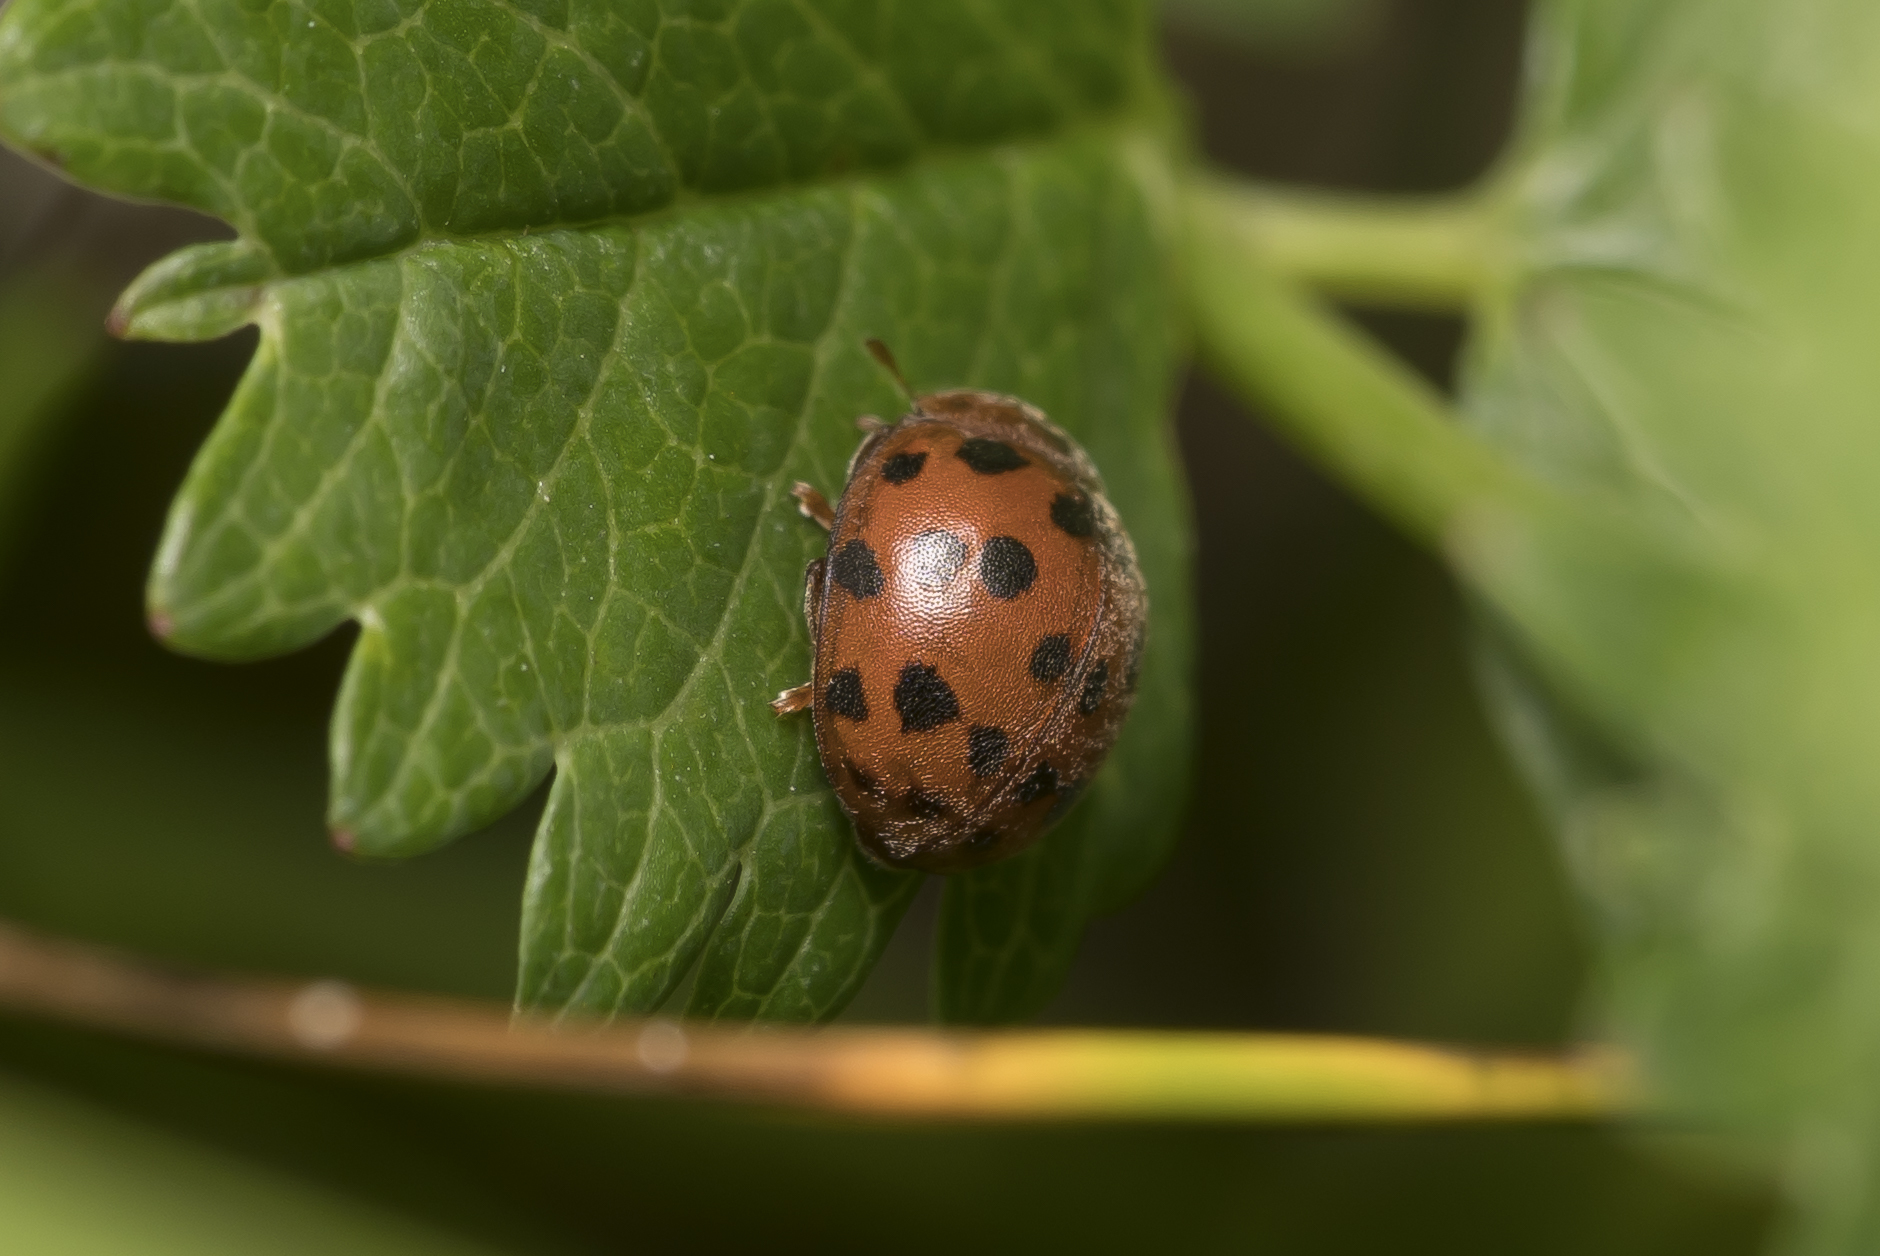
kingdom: Animalia
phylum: Arthropoda
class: Insecta
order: Coleoptera
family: Coccinellidae
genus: Subcoccinella
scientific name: Subcoccinella vigintiquatuorpunctata
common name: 24-spot ladybird
